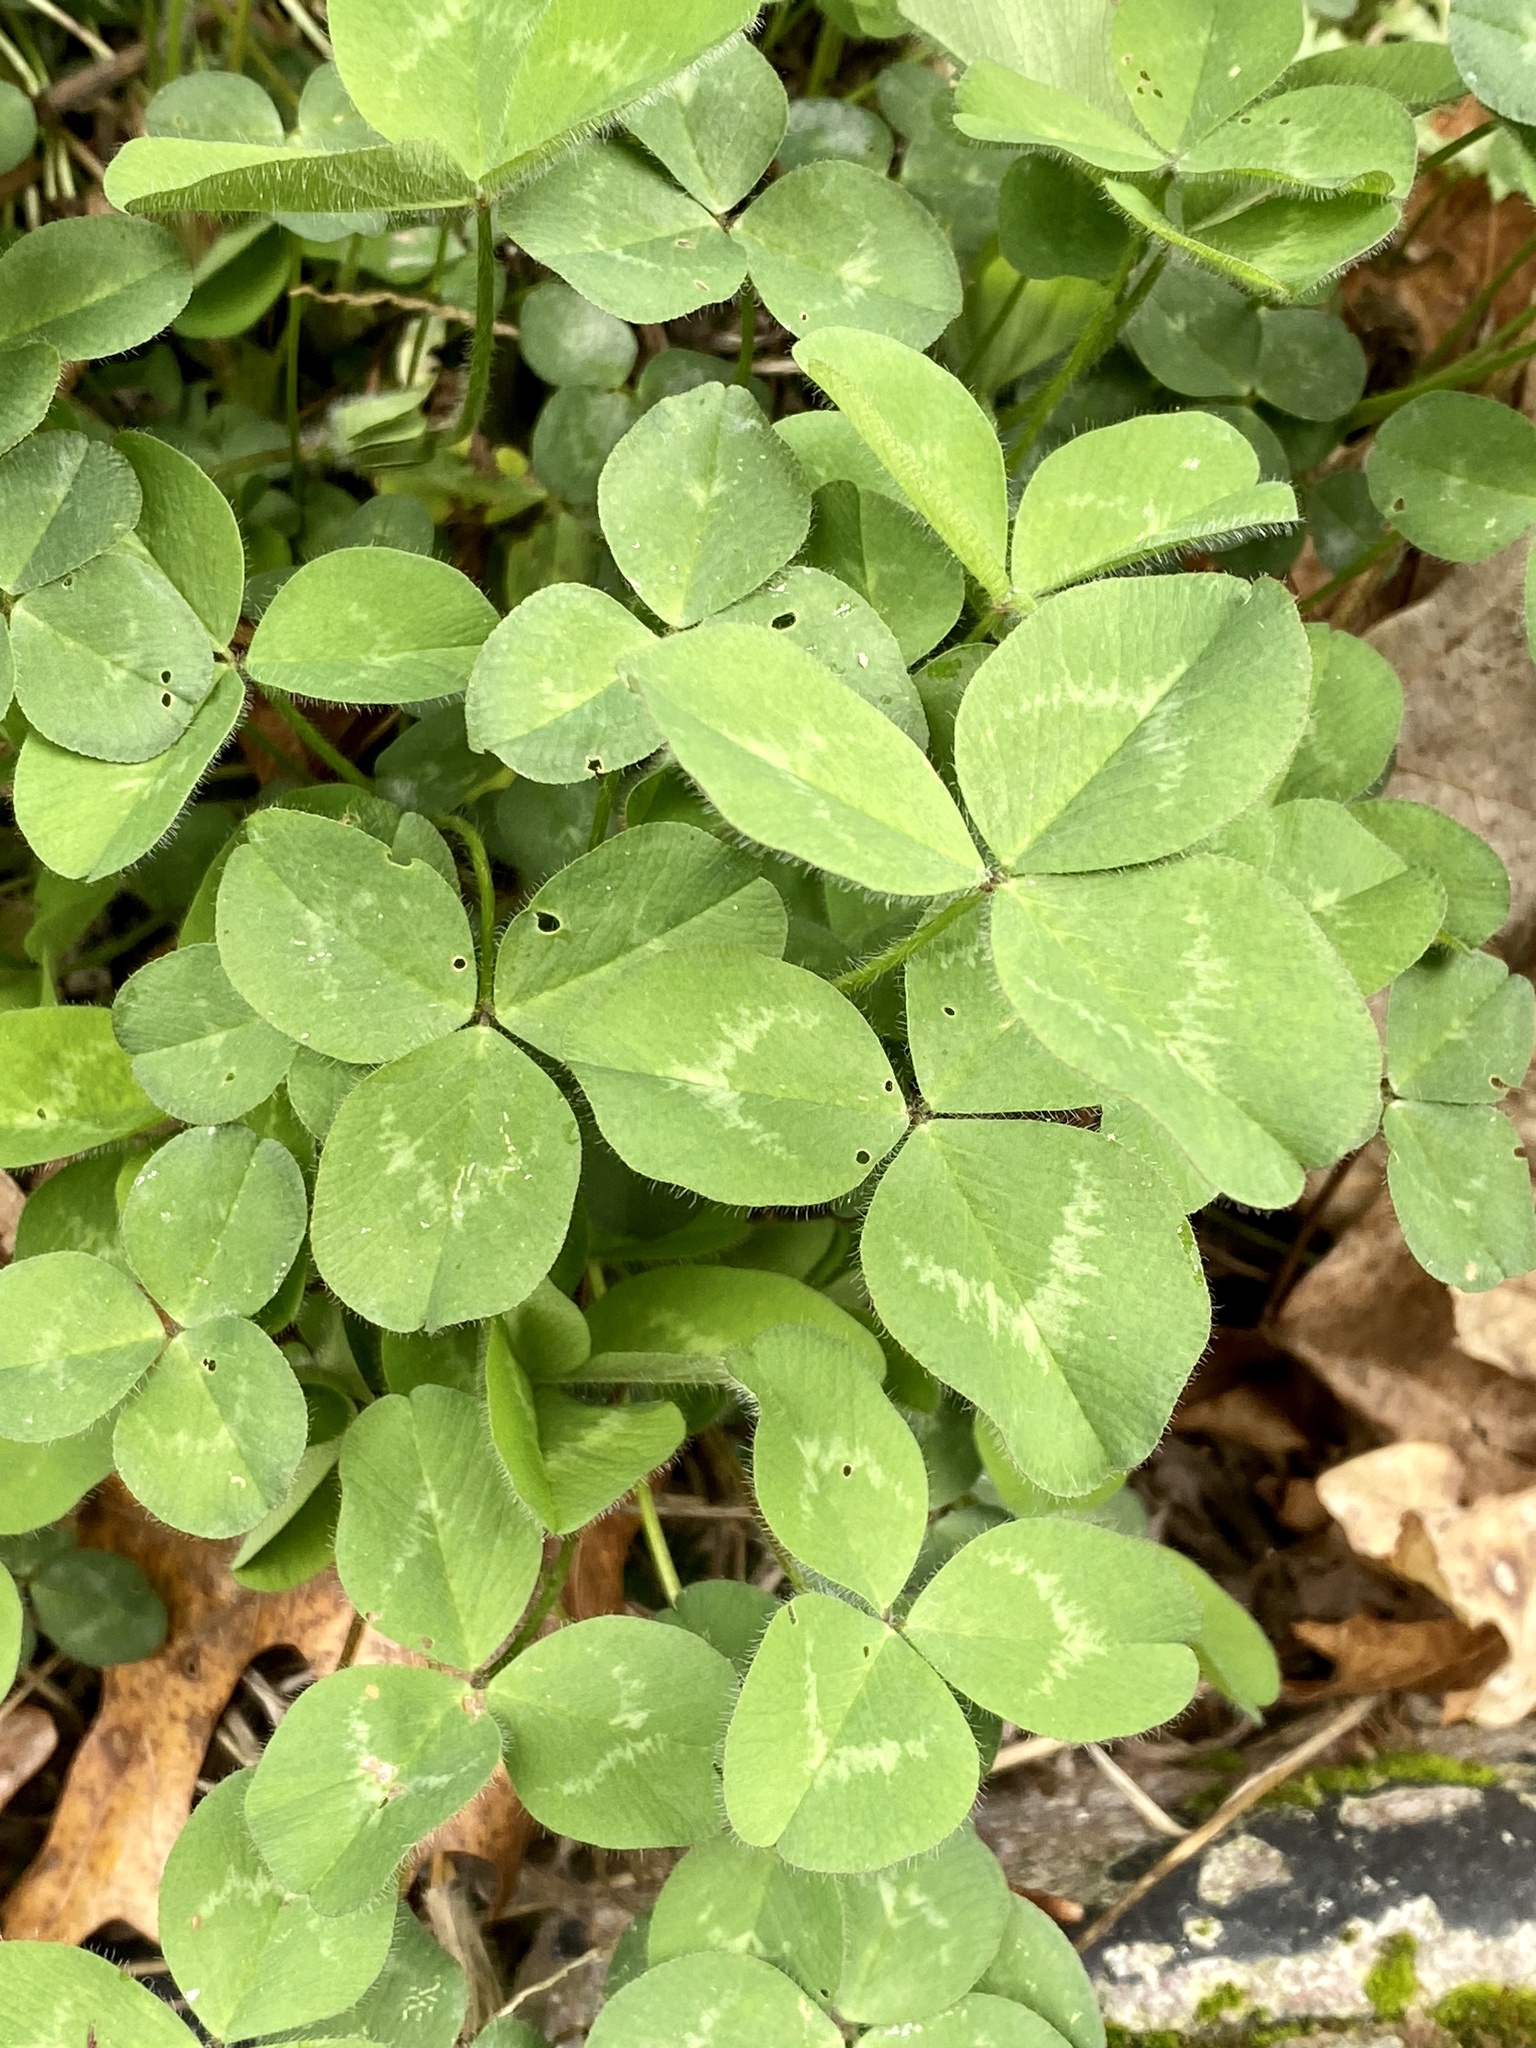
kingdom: Plantae
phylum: Tracheophyta
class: Magnoliopsida
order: Fabales
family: Fabaceae
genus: Trifolium
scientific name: Trifolium pratense
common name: Red clover
